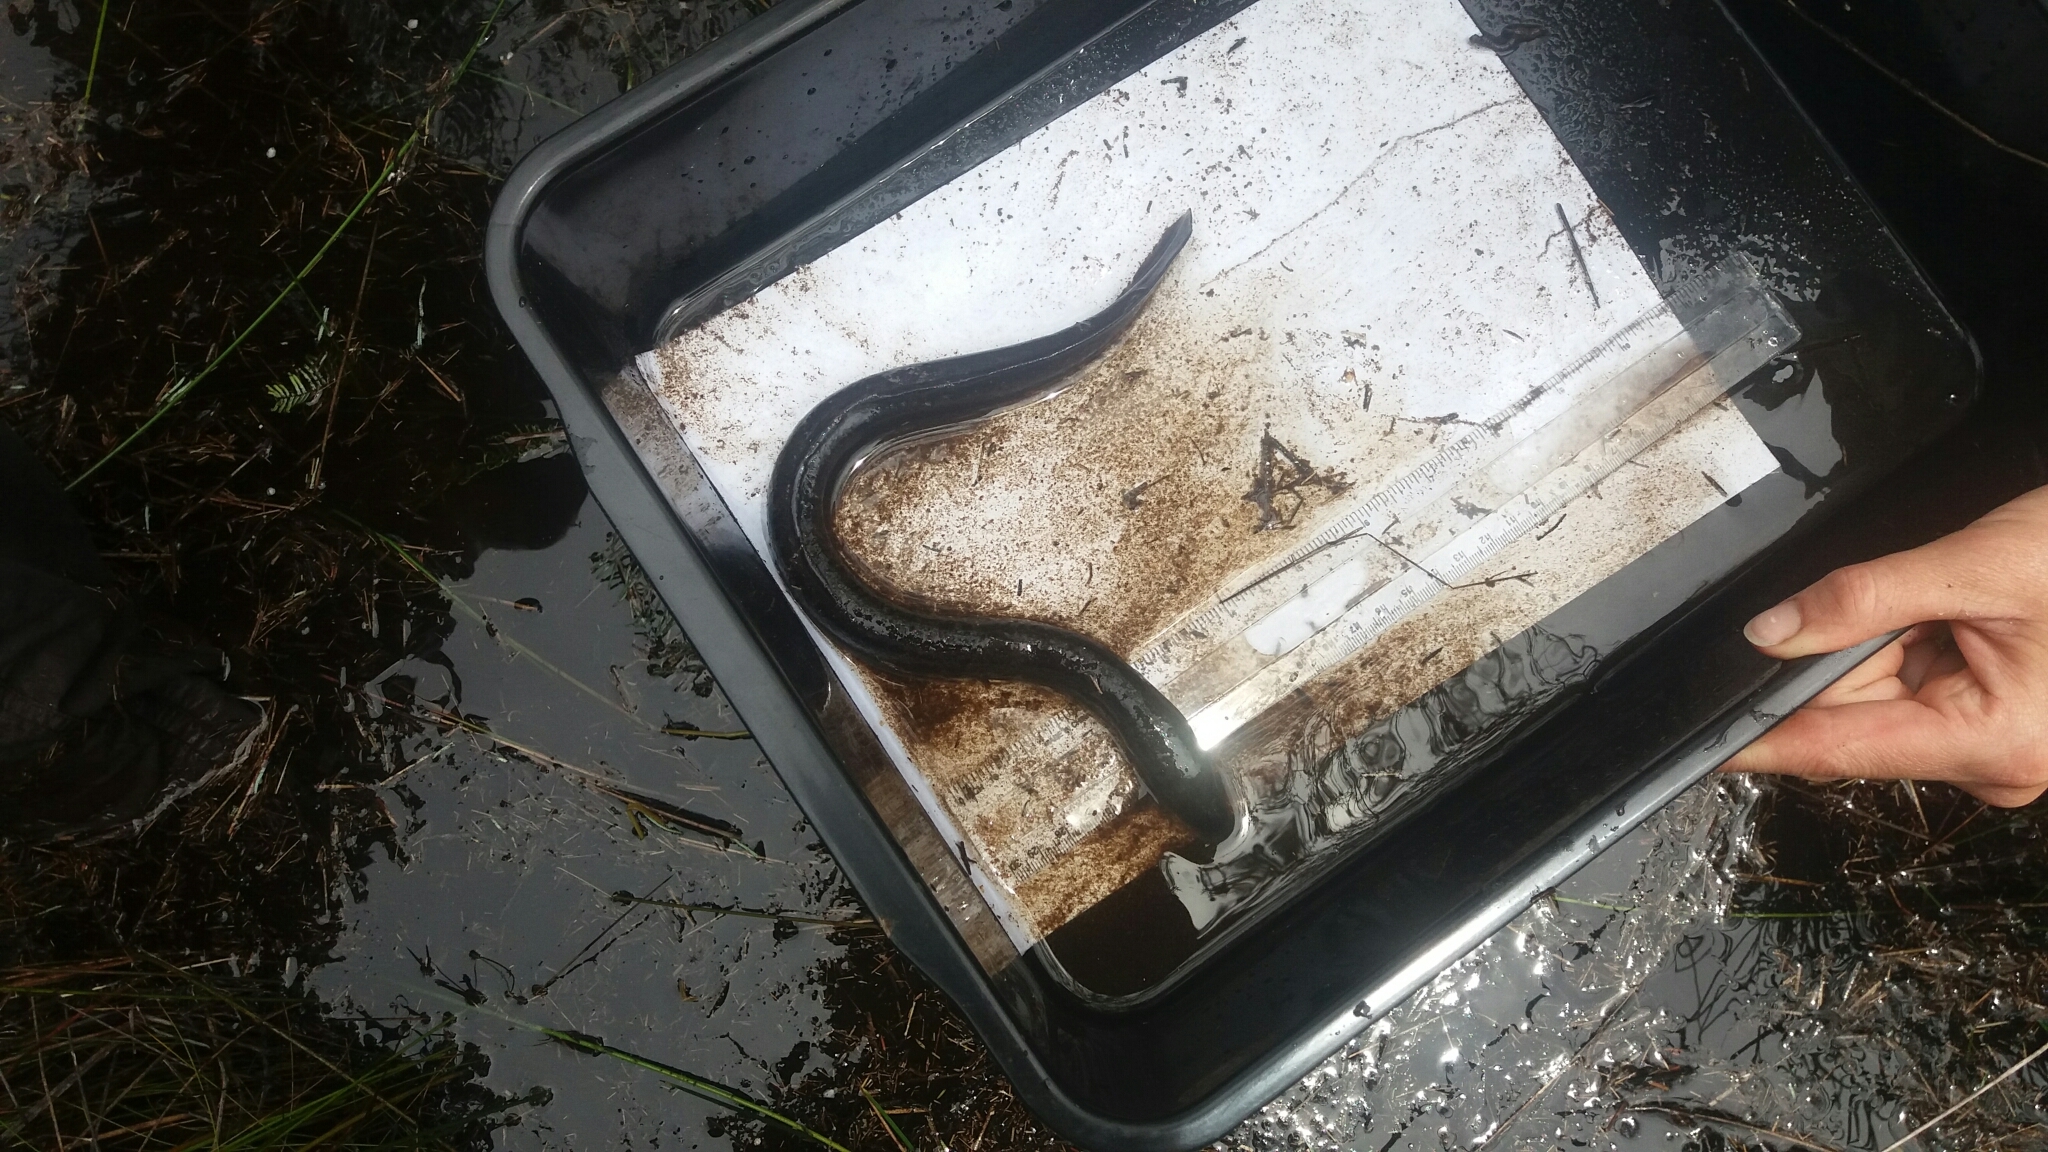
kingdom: Animalia
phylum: Chordata
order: Anguilliformes
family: Anguillidae
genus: Anguilla
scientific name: Anguilla australis
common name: Shortfin eel
